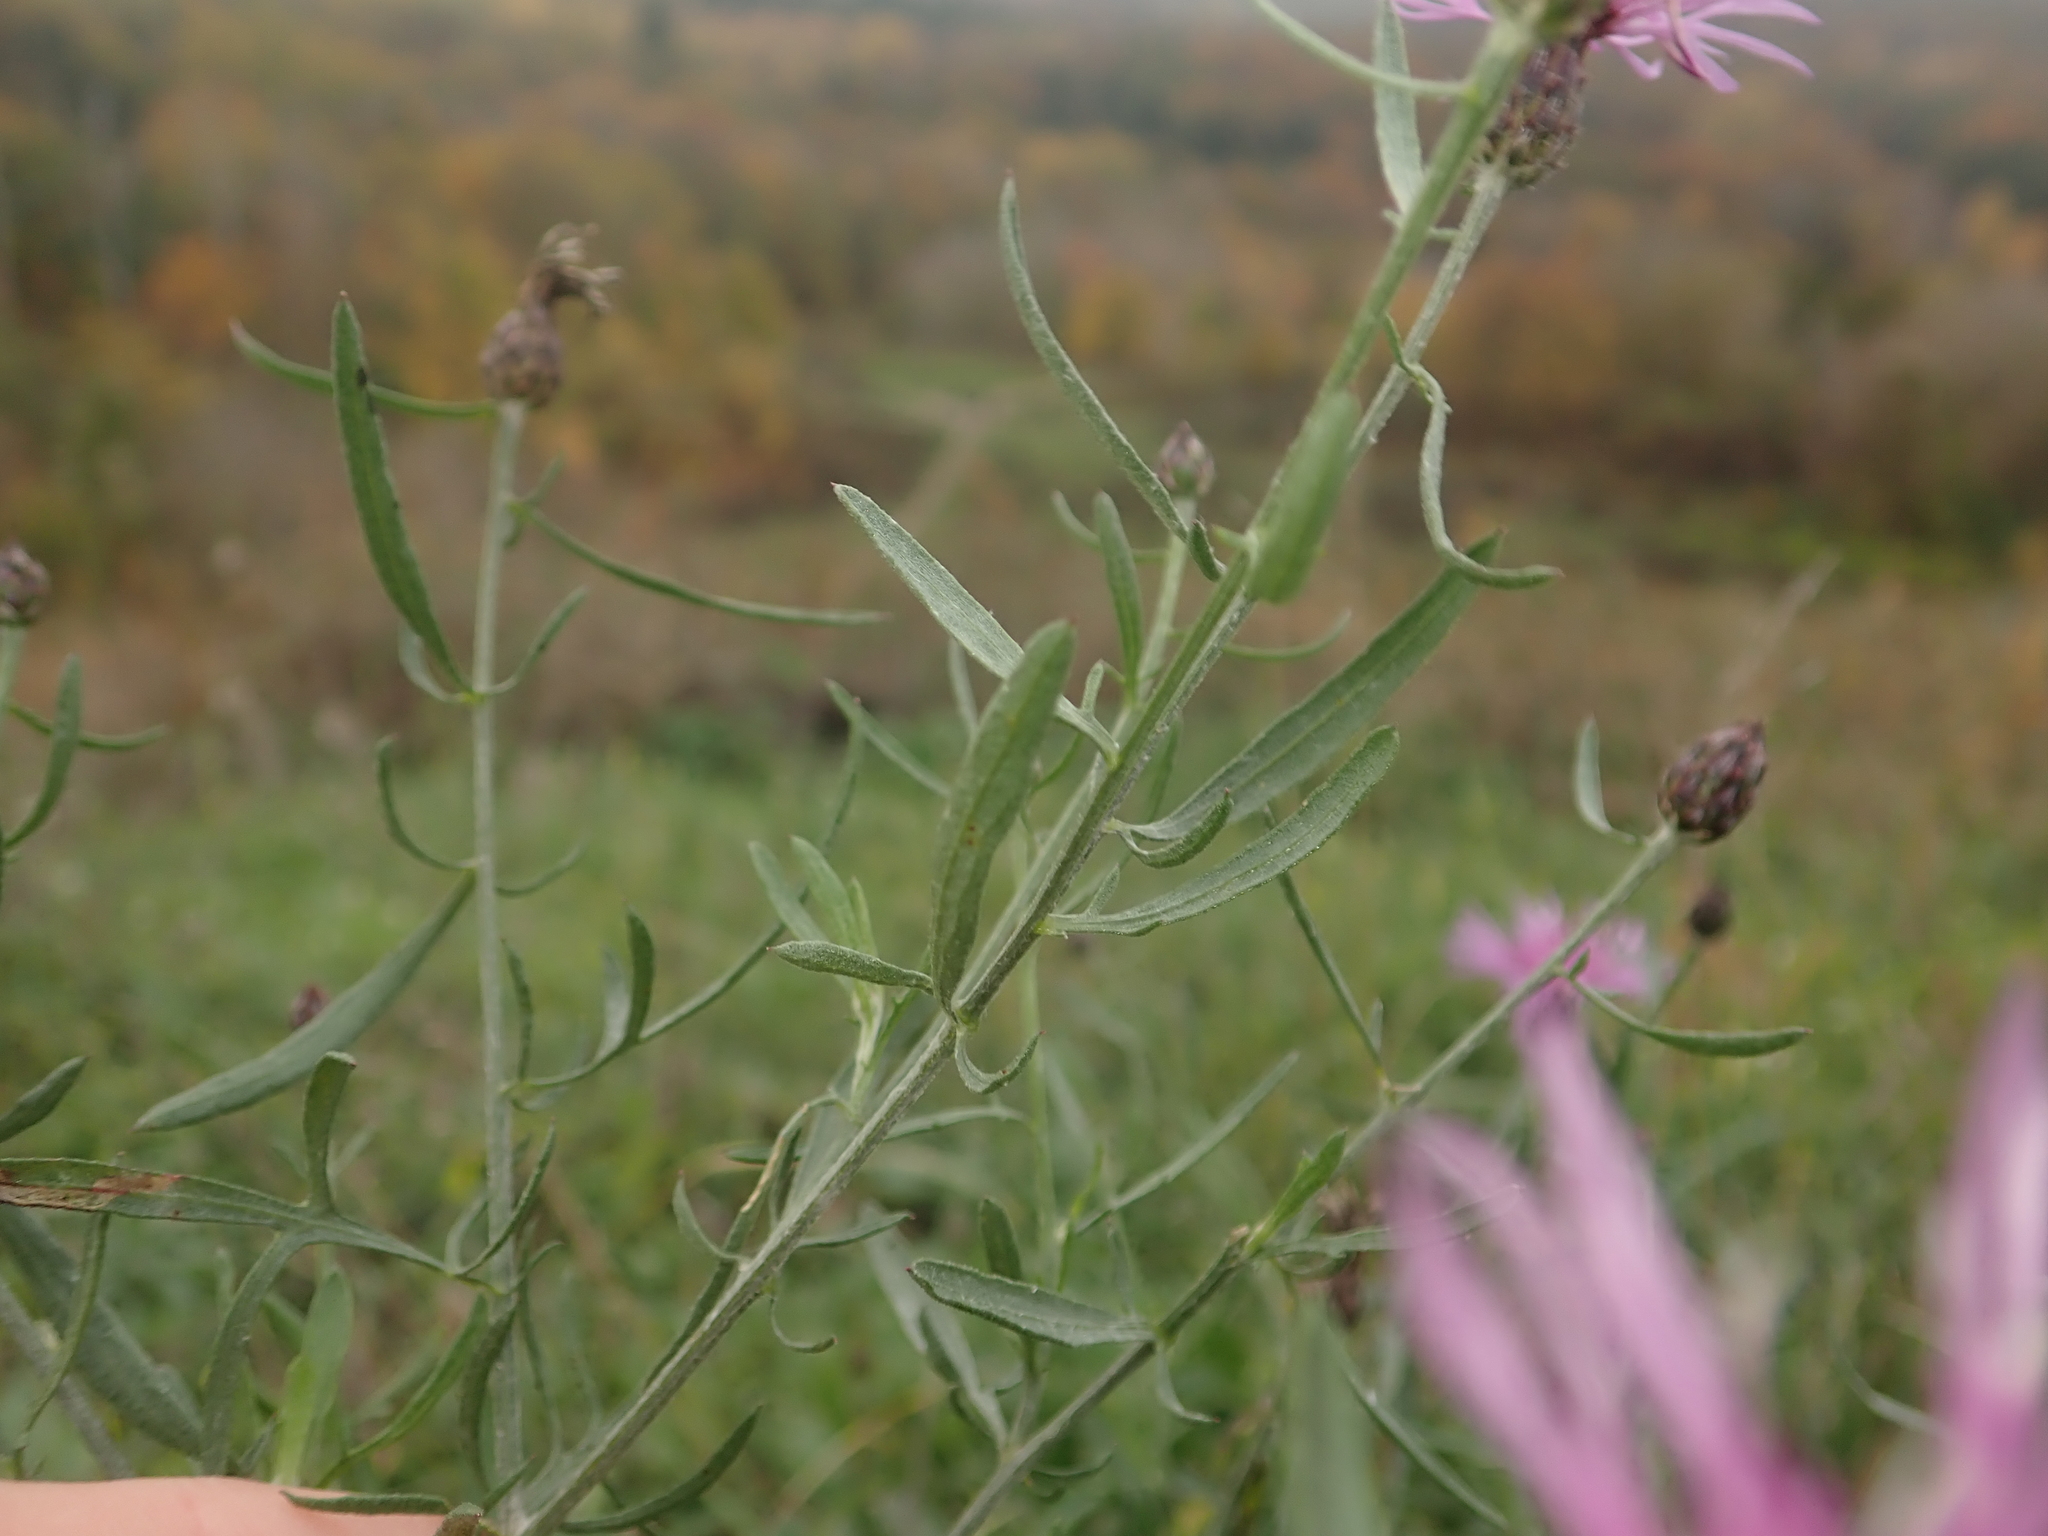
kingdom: Plantae
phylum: Tracheophyta
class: Magnoliopsida
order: Asterales
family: Asteraceae
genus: Centaurea
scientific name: Centaurea stoebe
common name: Spotted knapweed
